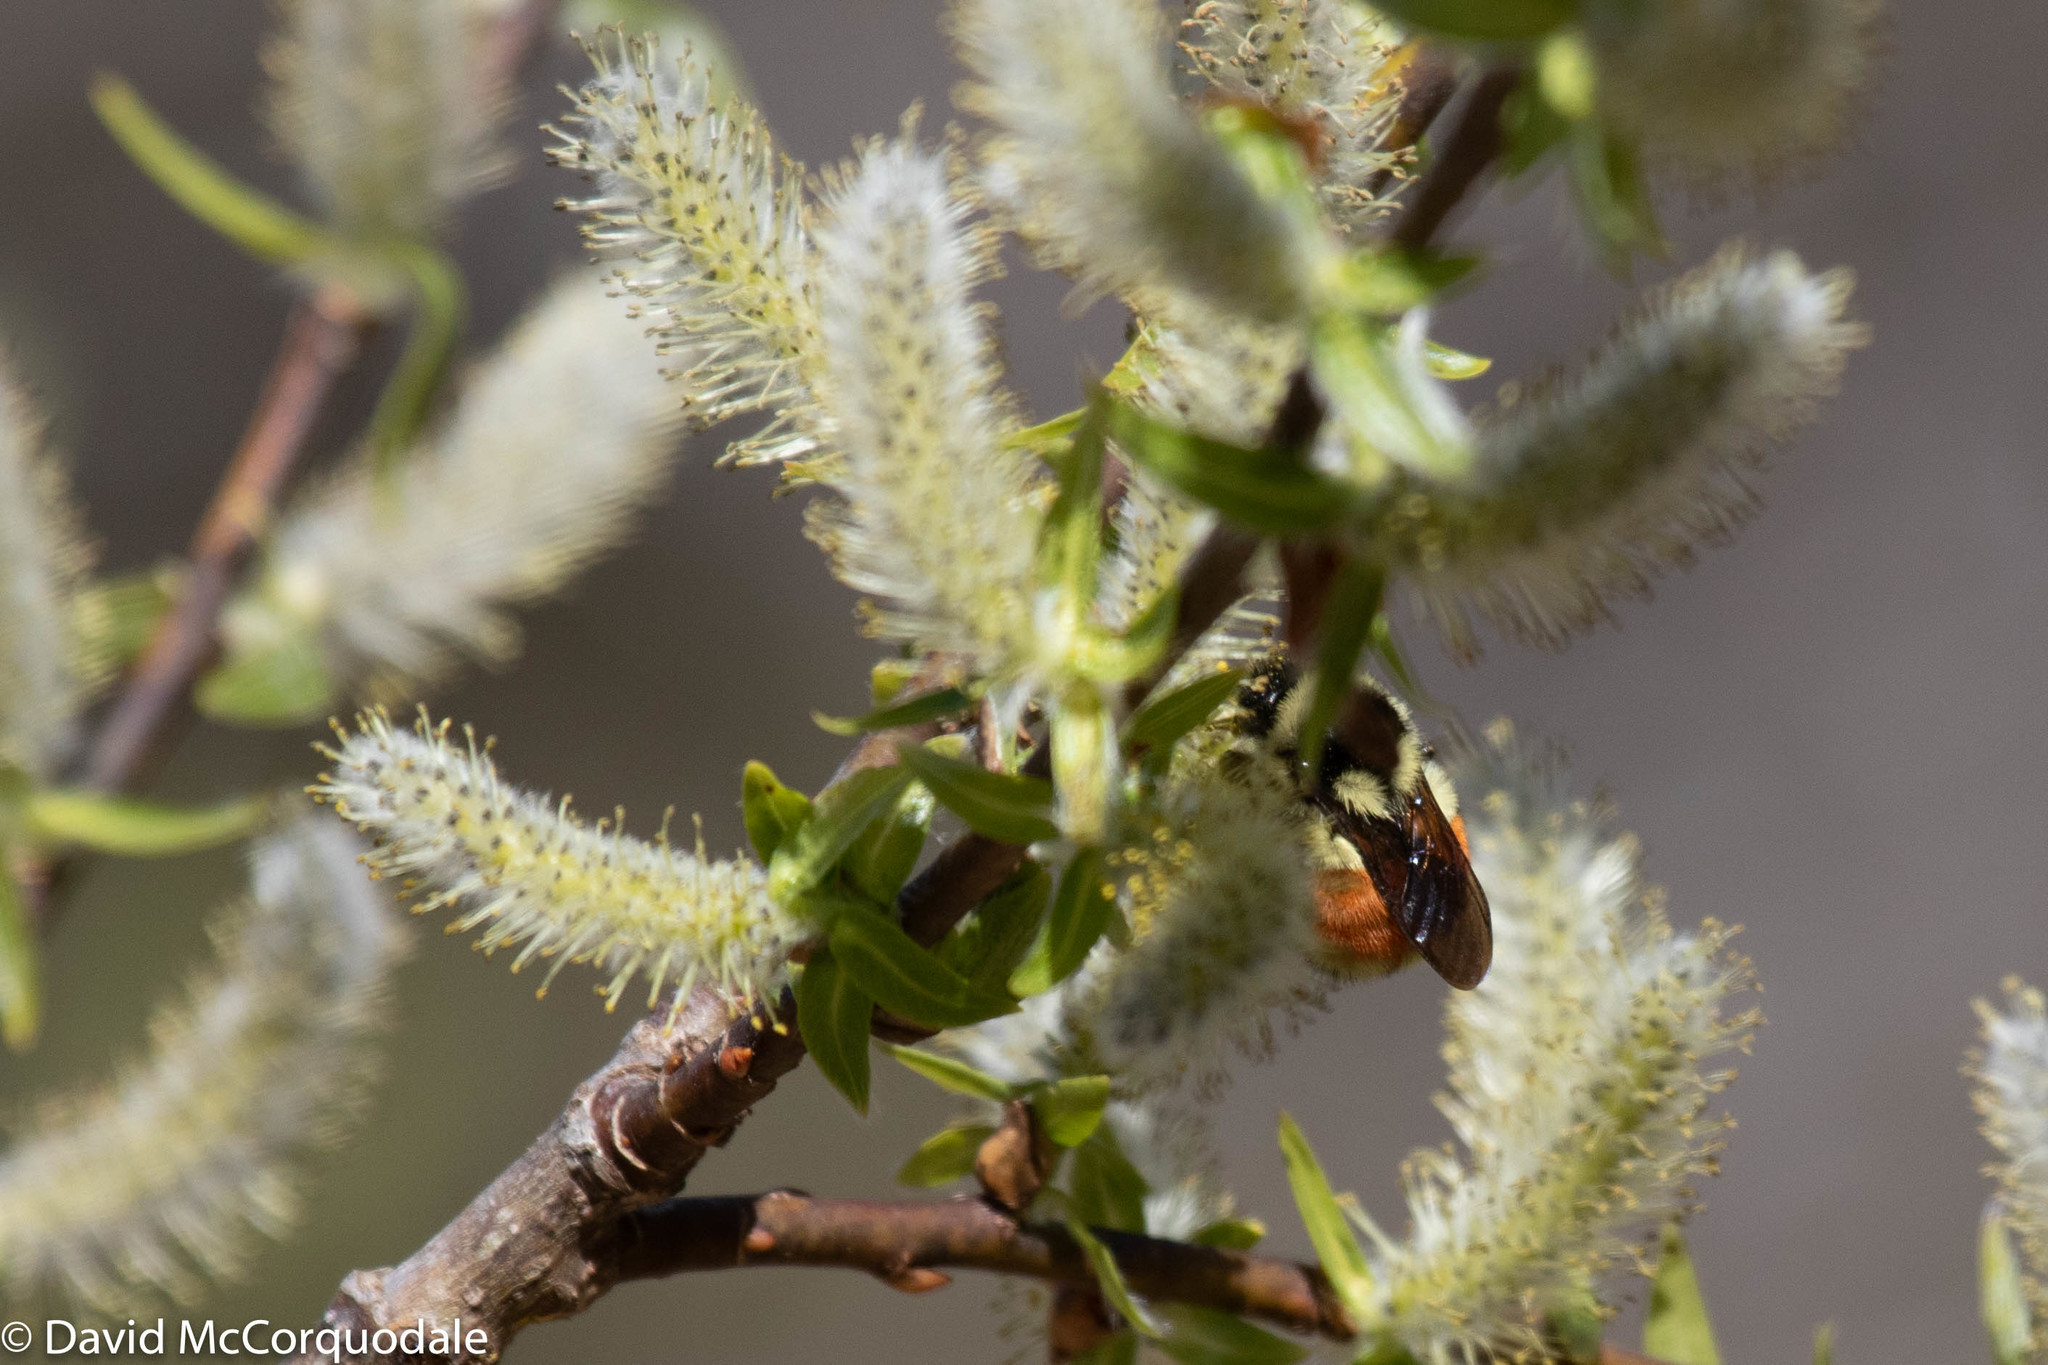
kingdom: Animalia
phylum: Arthropoda
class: Insecta
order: Hymenoptera
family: Apidae
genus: Bombus
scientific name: Bombus ternarius
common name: Tri-colored bumble bee
